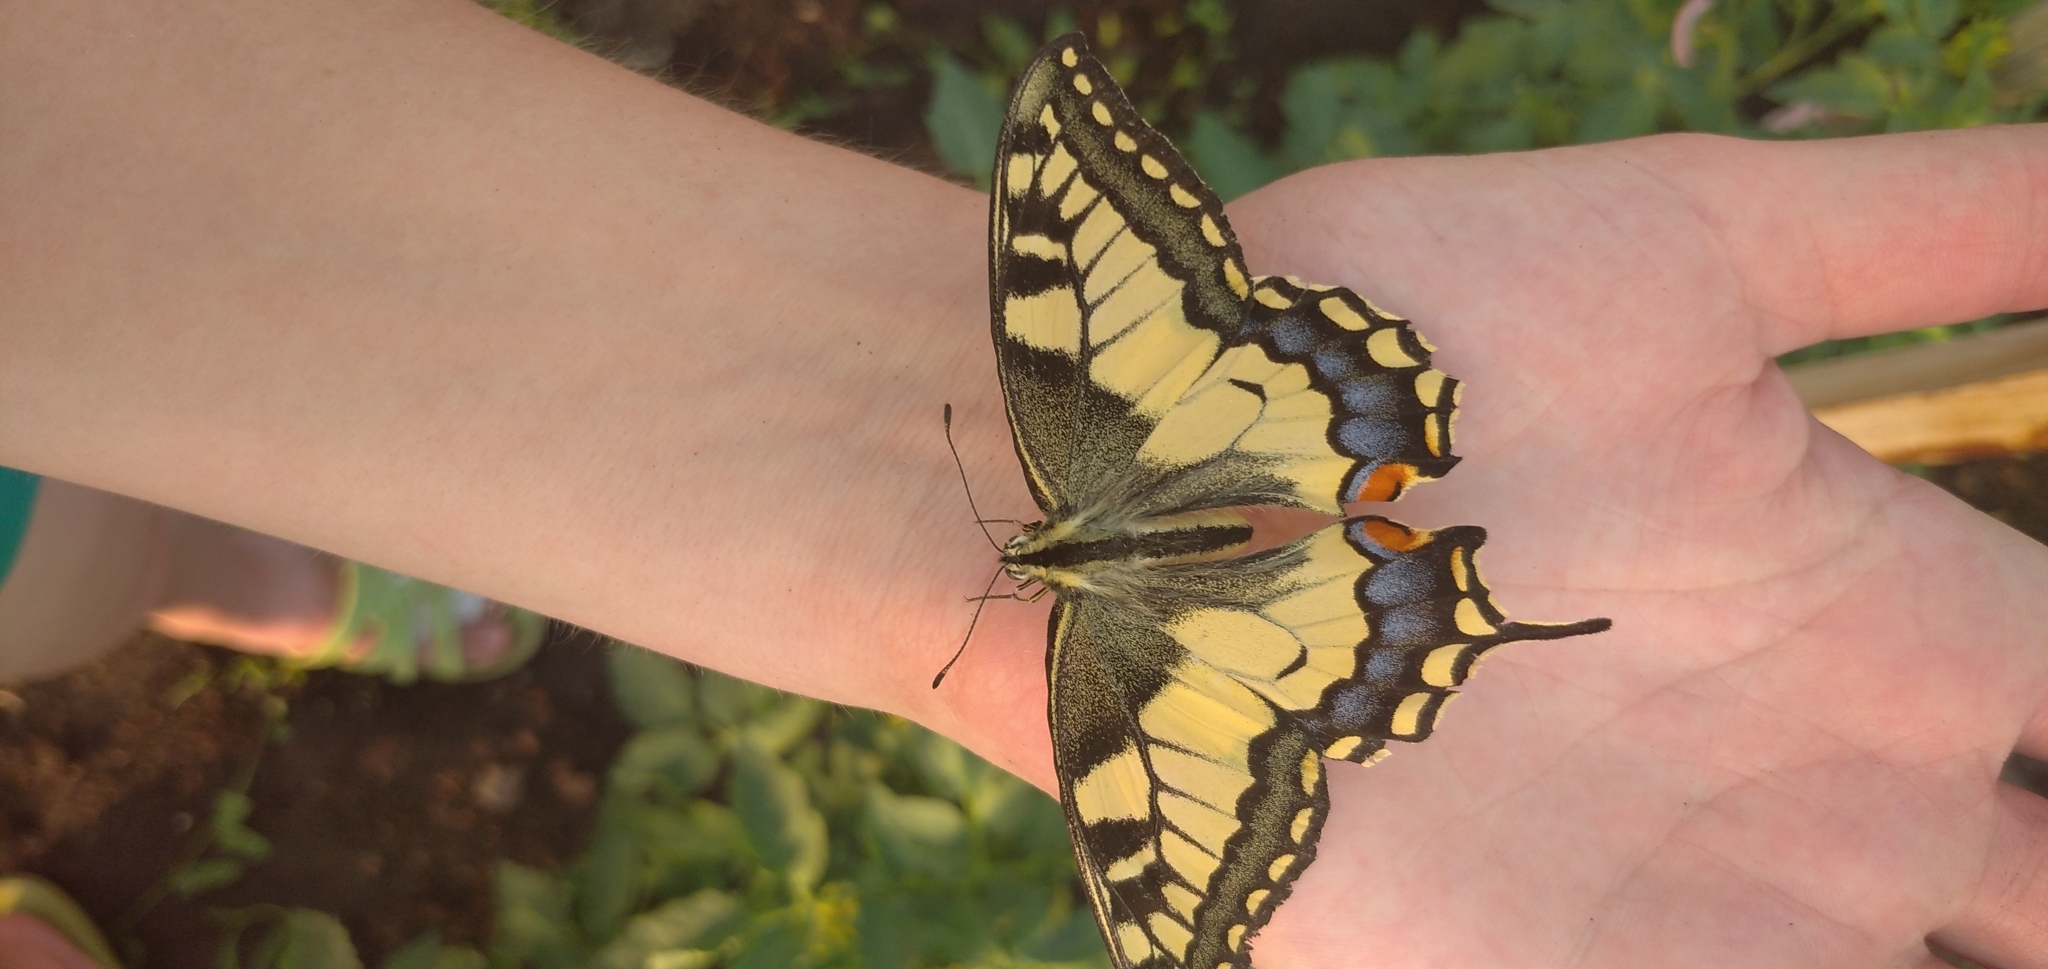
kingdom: Animalia
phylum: Arthropoda
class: Insecta
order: Lepidoptera
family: Papilionidae
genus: Papilio
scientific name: Papilio machaon
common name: Swallowtail
